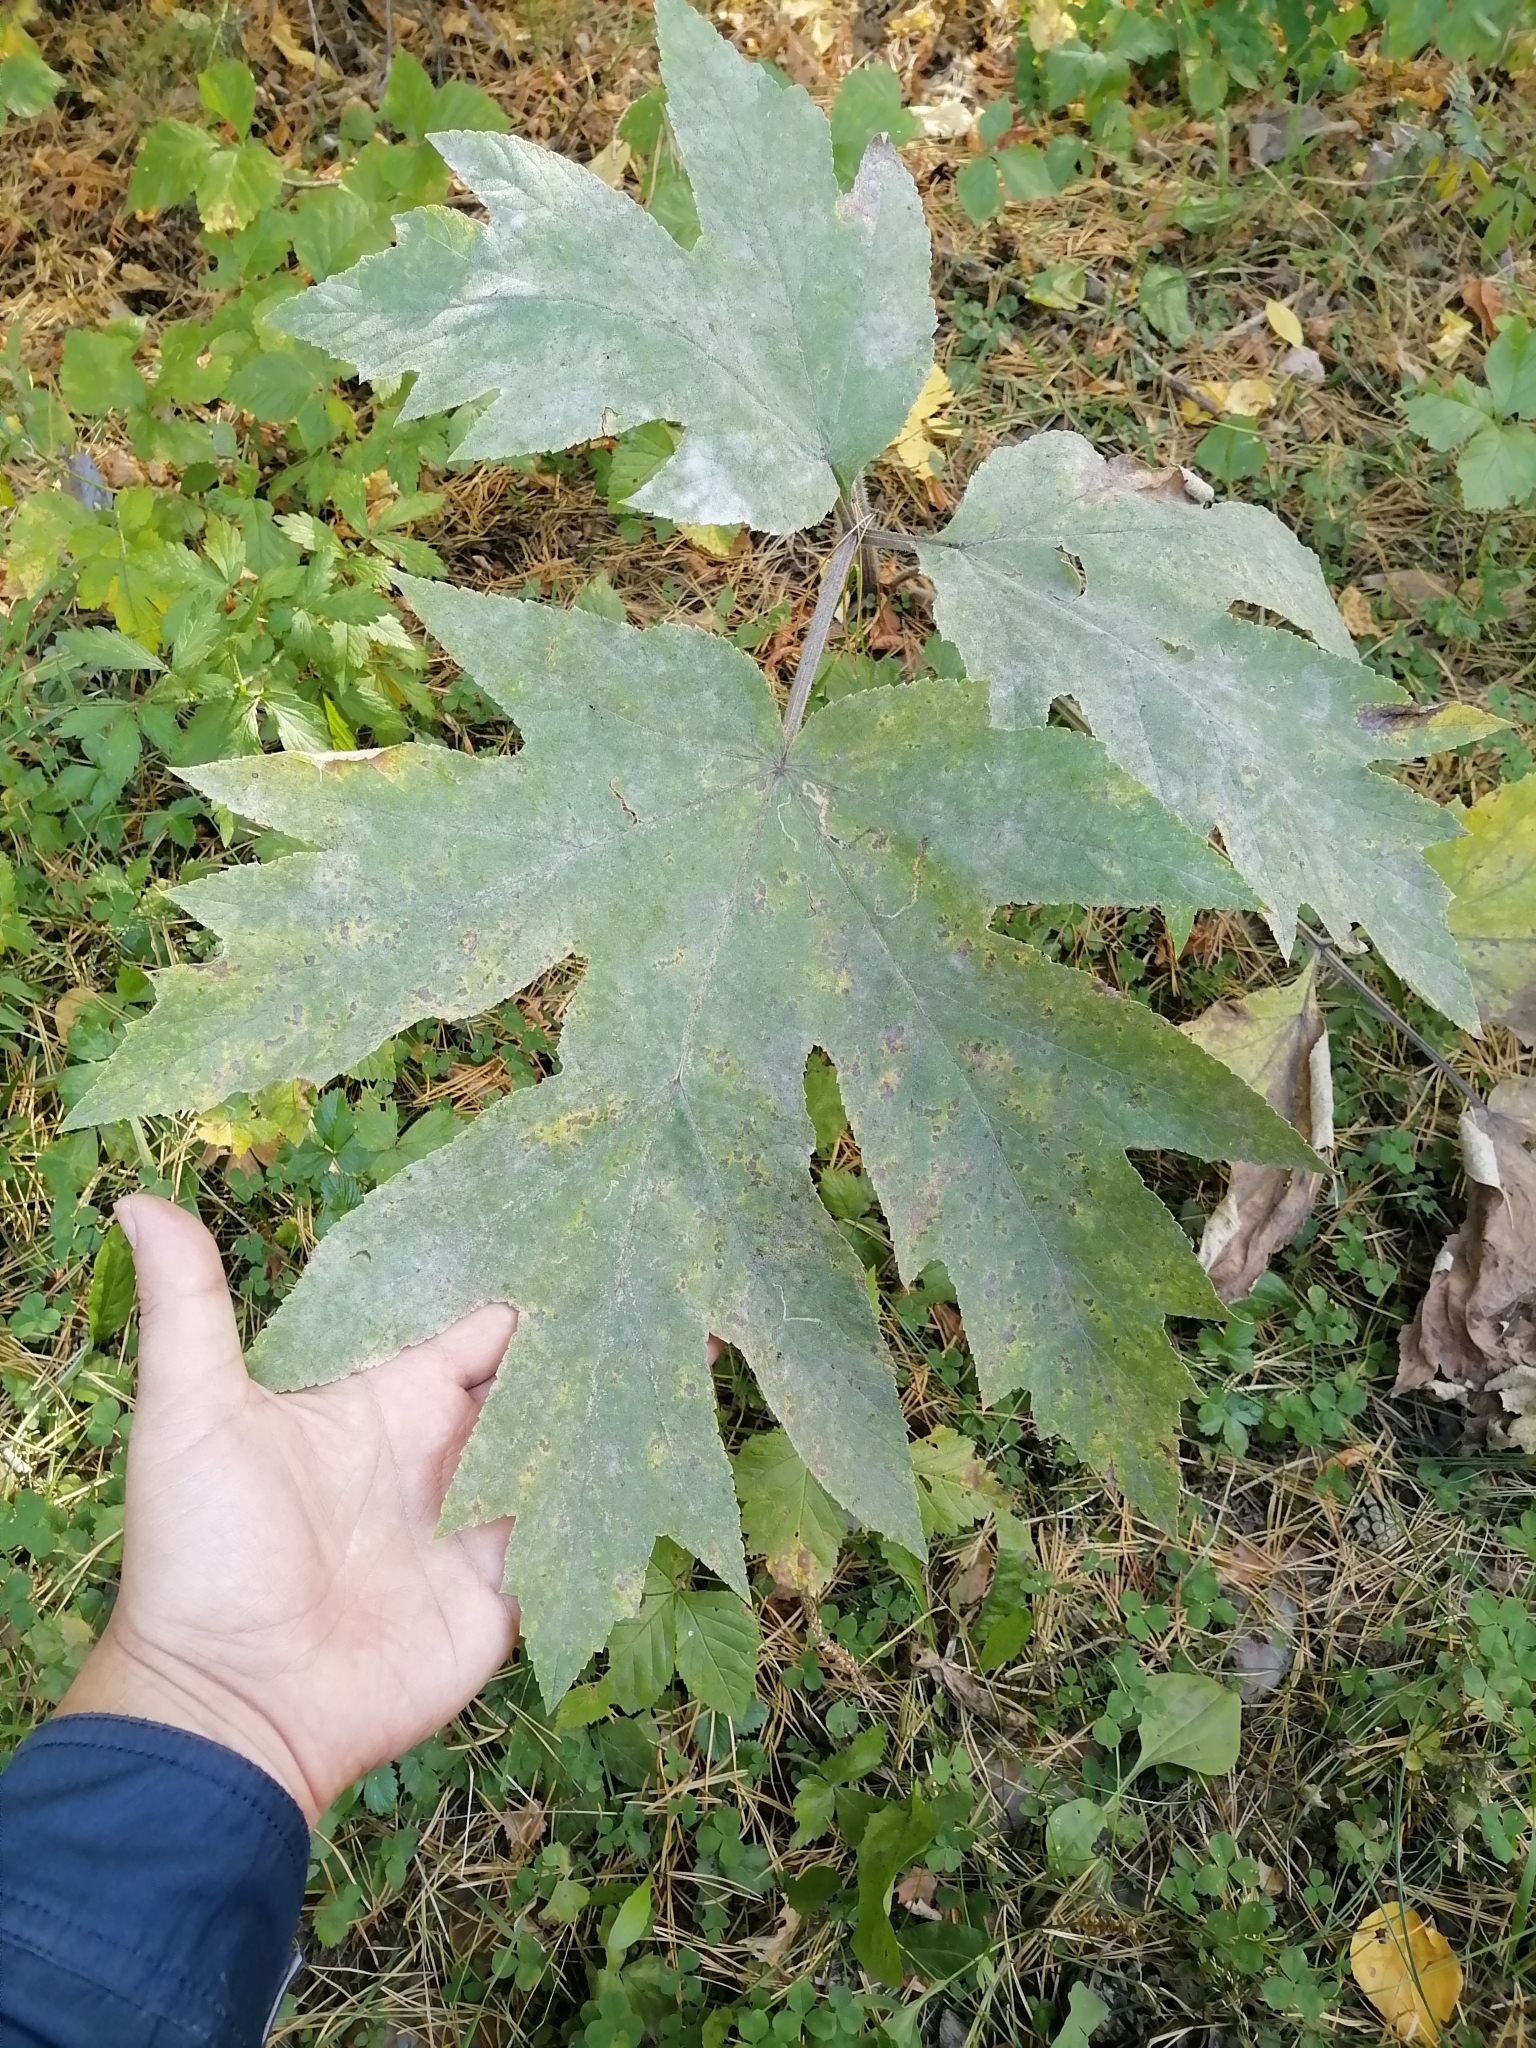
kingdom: Plantae
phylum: Tracheophyta
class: Magnoliopsida
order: Apiales
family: Apiaceae
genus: Heracleum
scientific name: Heracleum dissectum
